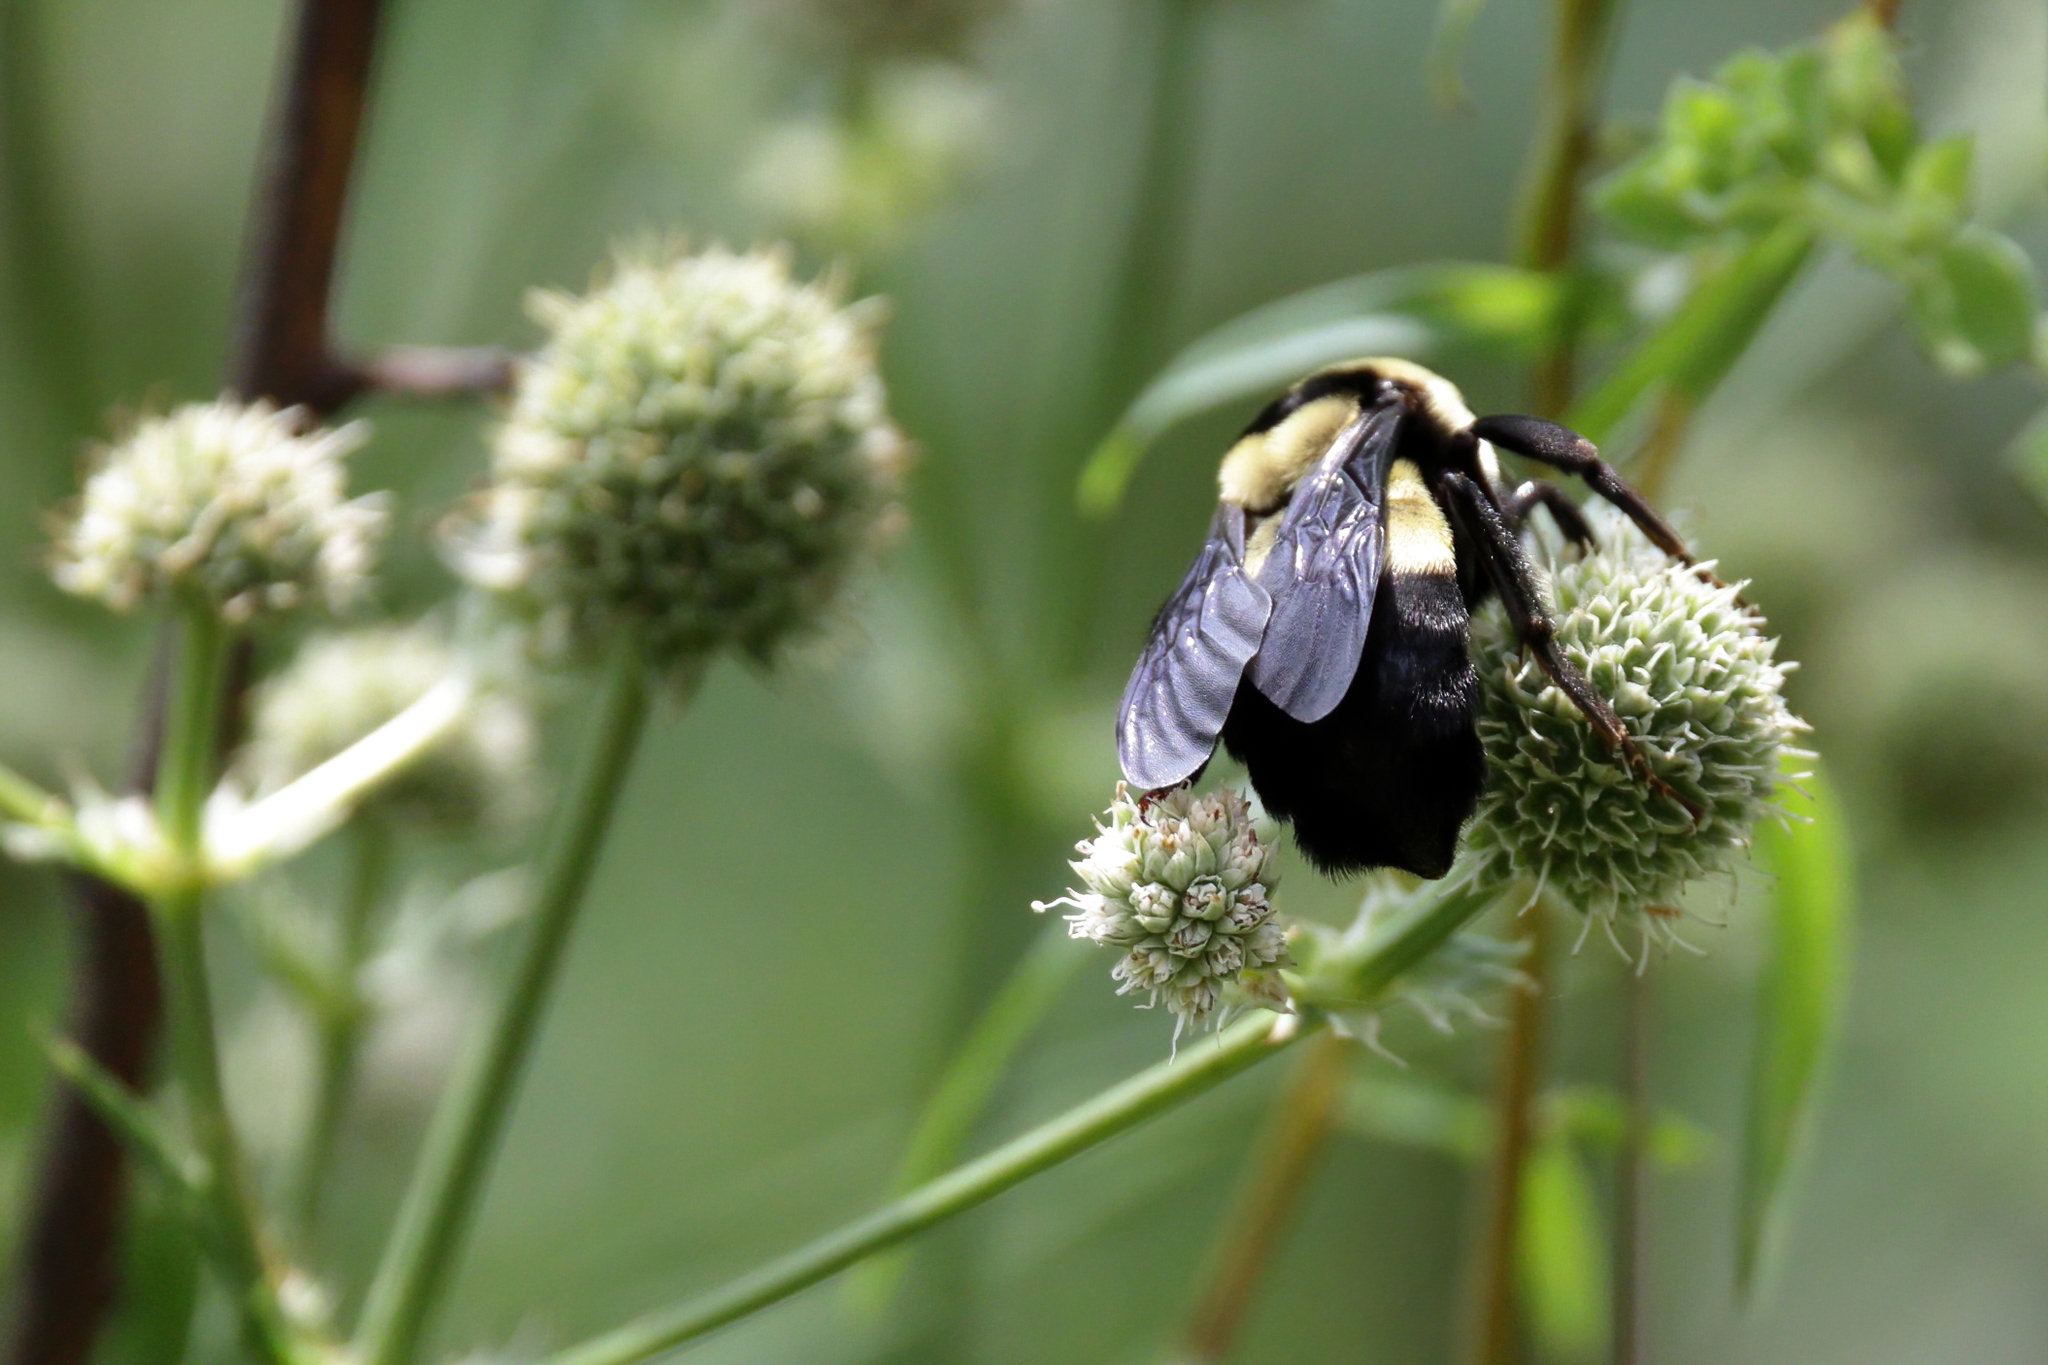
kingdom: Animalia
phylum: Arthropoda
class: Insecta
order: Hymenoptera
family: Apidae
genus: Bombus
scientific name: Bombus fraternus
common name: Southern plains bumble bee
